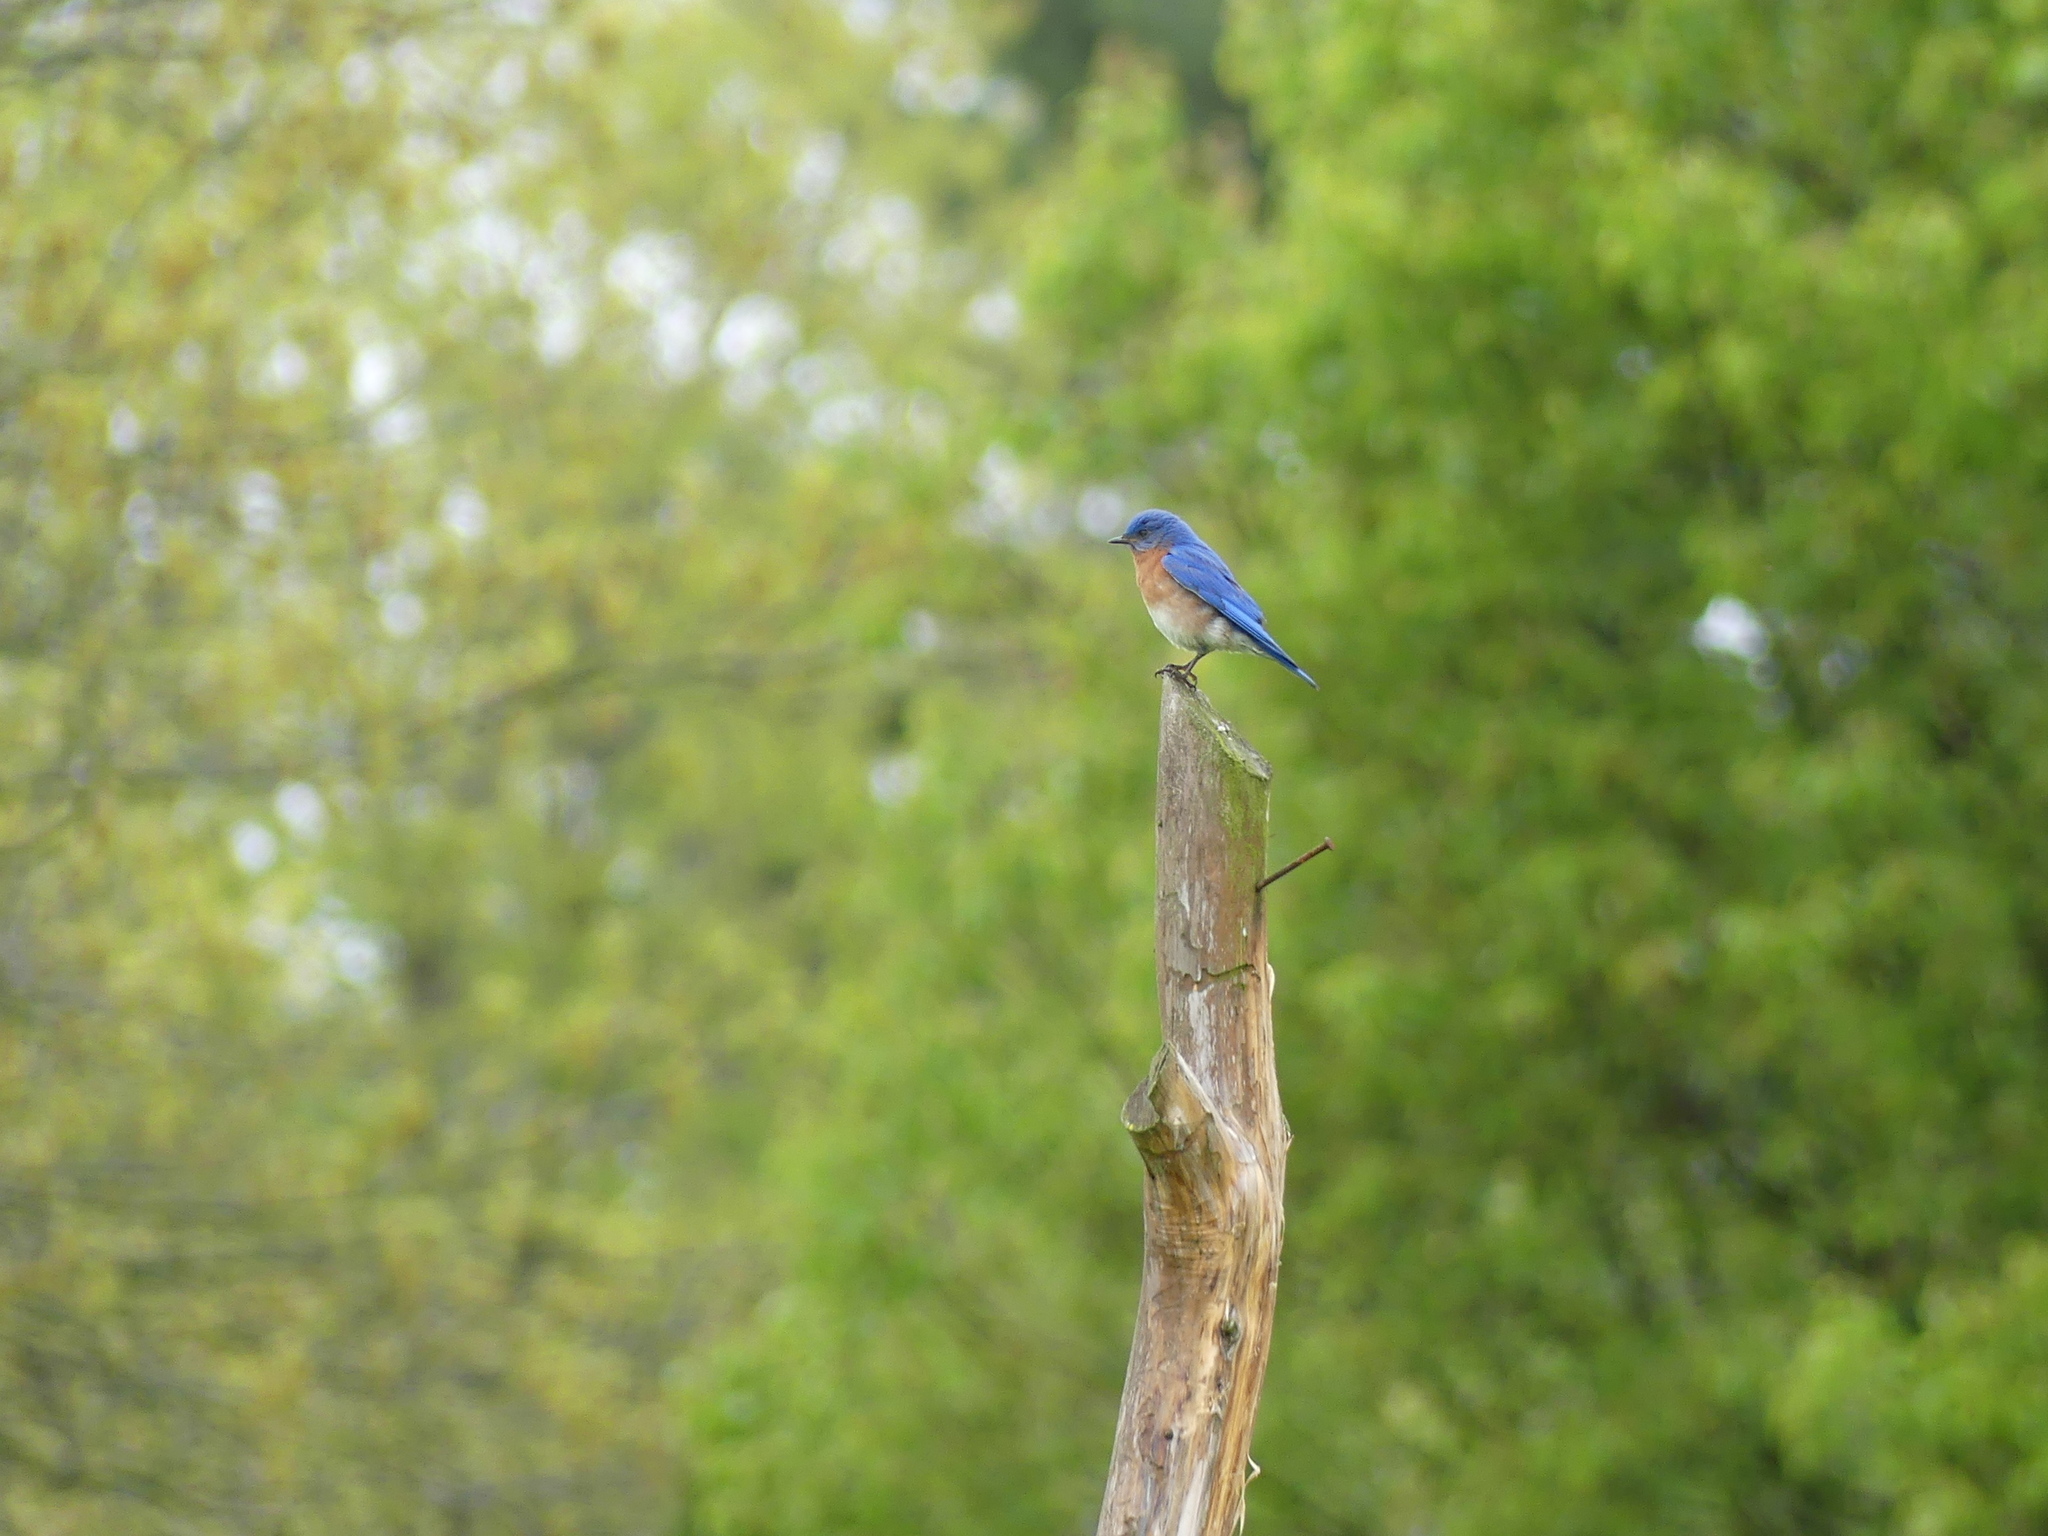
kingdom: Animalia
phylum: Chordata
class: Aves
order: Passeriformes
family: Turdidae
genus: Sialia
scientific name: Sialia sialis
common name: Eastern bluebird
